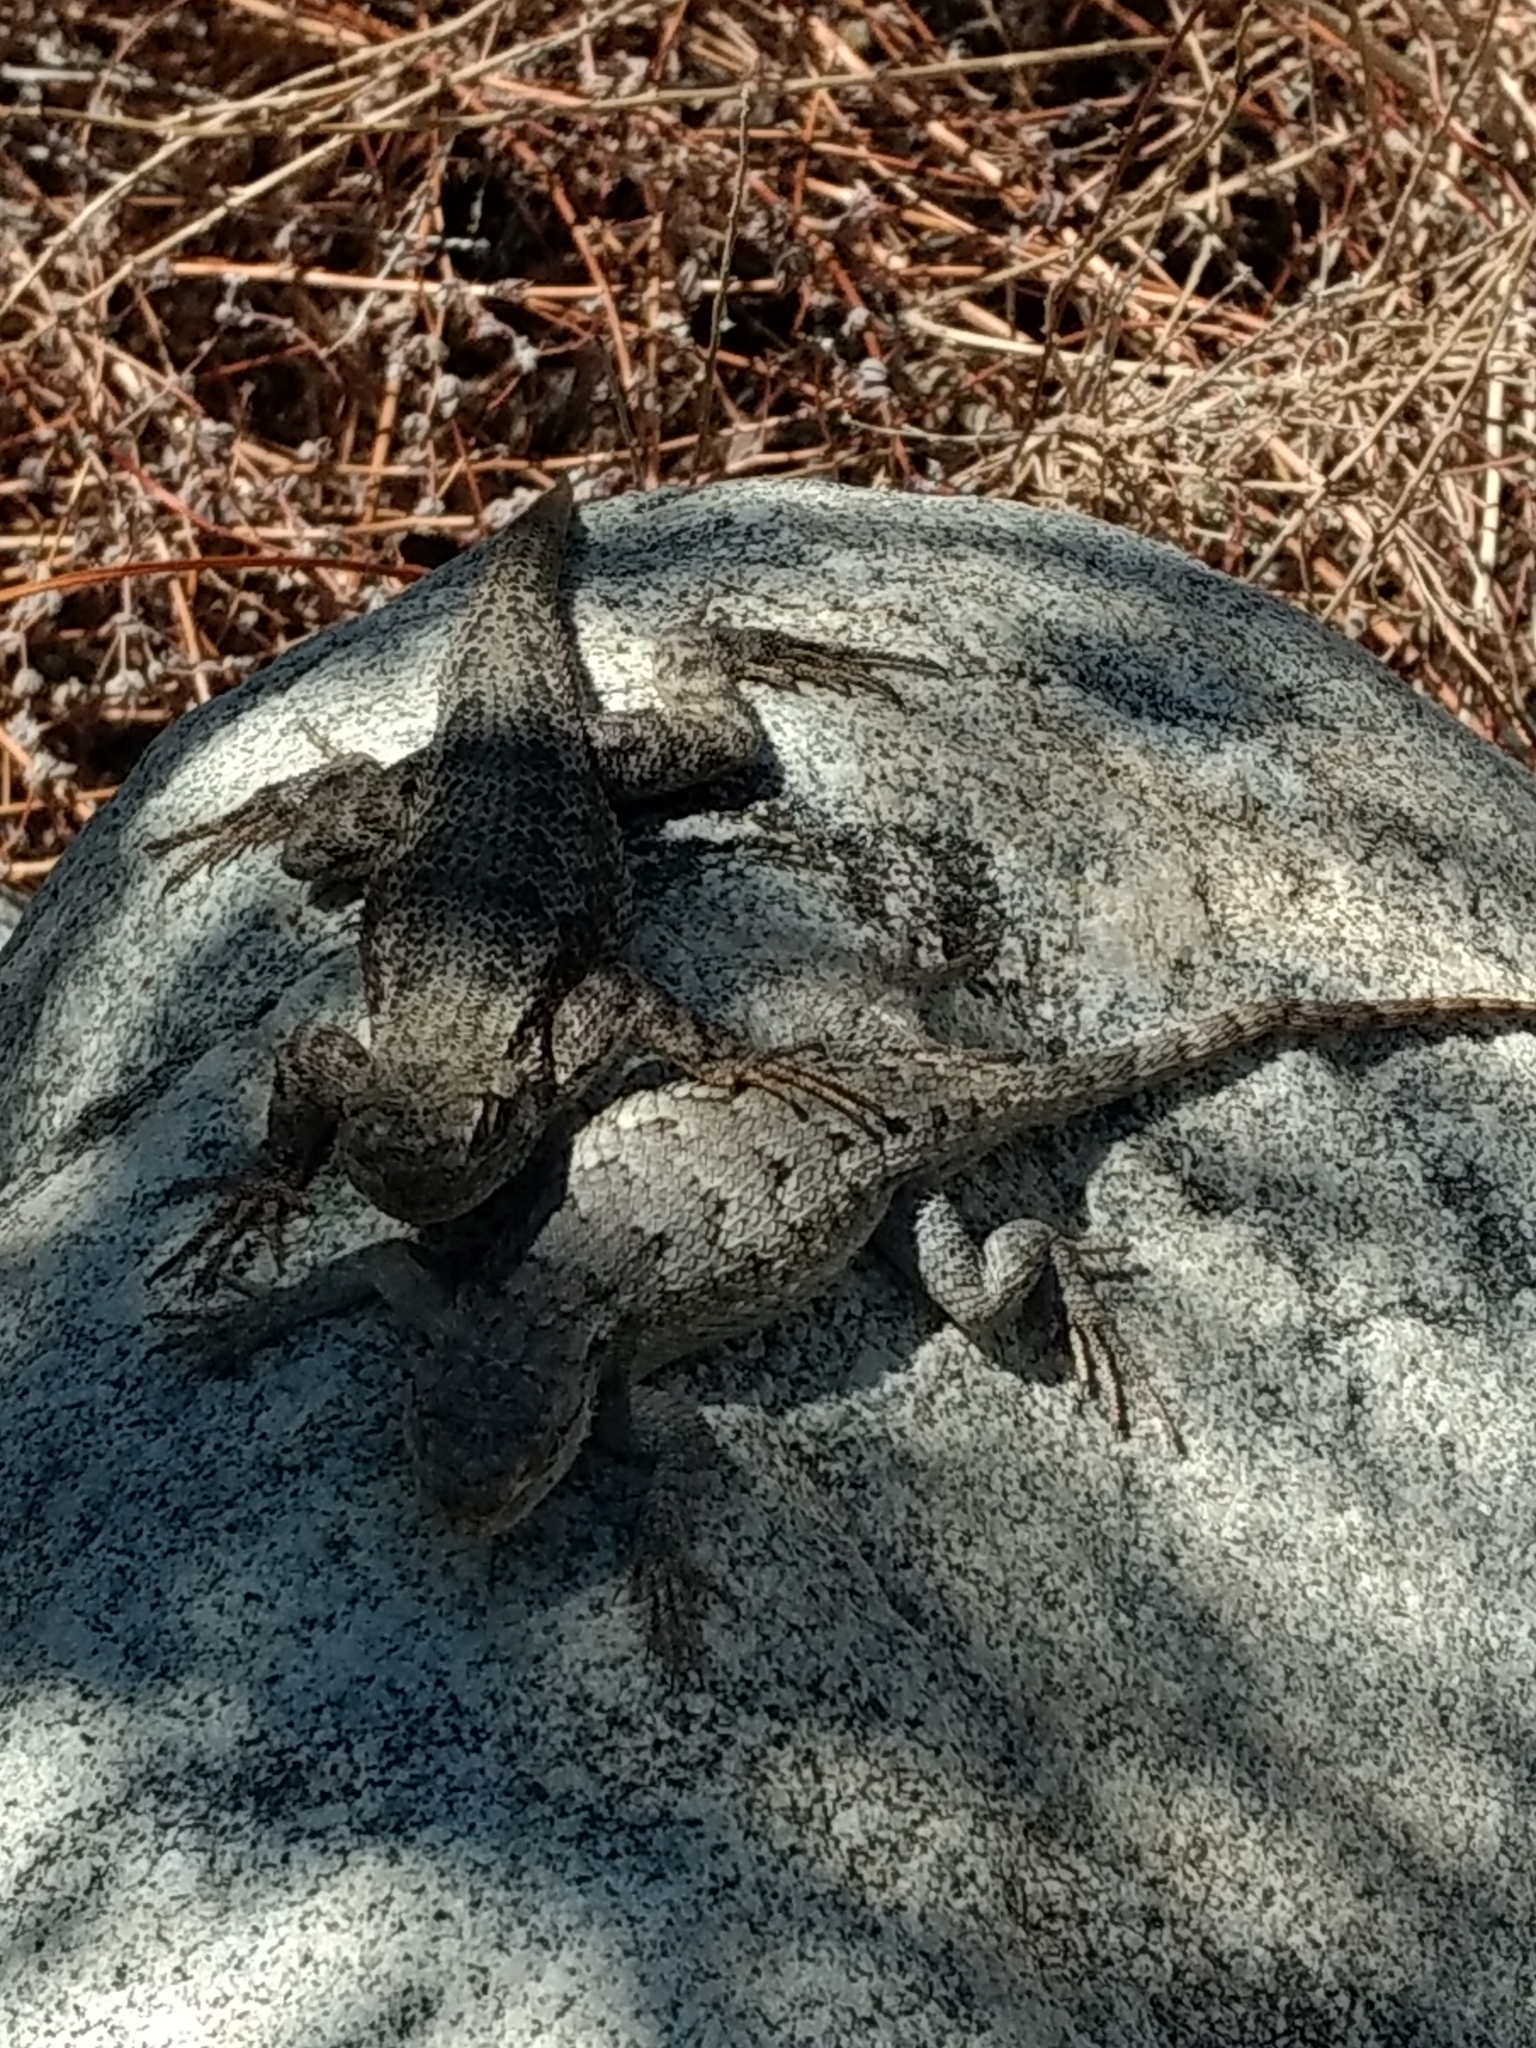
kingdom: Animalia
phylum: Chordata
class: Squamata
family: Phrynosomatidae
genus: Sceloporus
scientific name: Sceloporus occidentalis
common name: Western fence lizard
